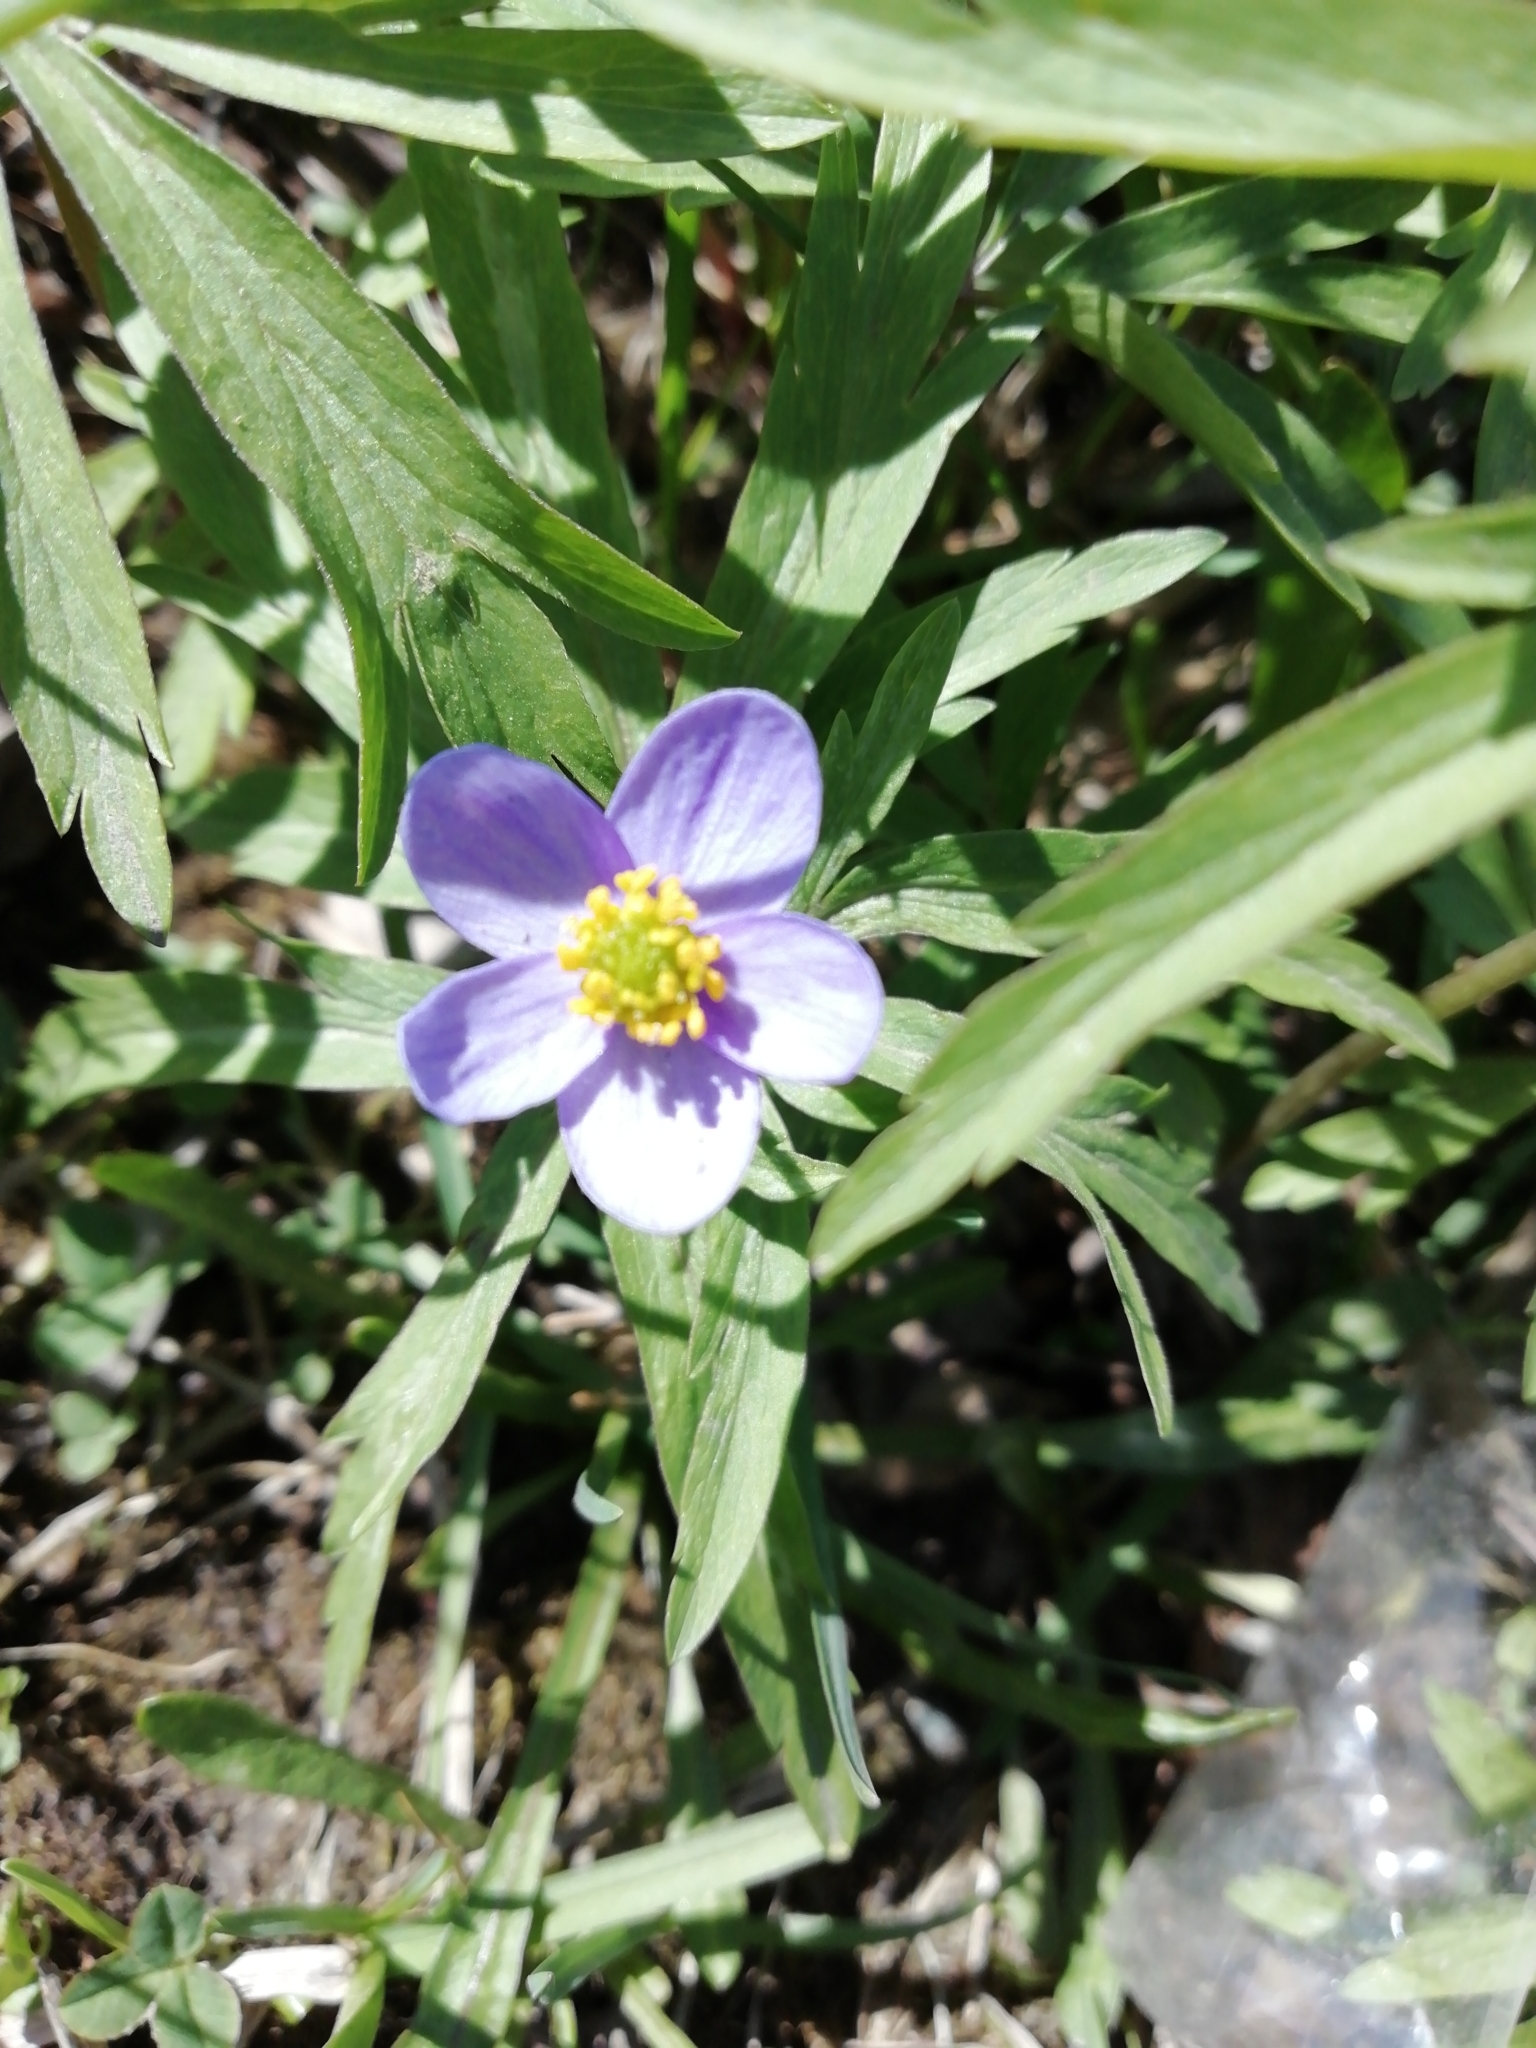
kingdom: Plantae
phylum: Tracheophyta
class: Magnoliopsida
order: Ranunculales
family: Ranunculaceae
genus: Anemone
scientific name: Anemone caerulea
